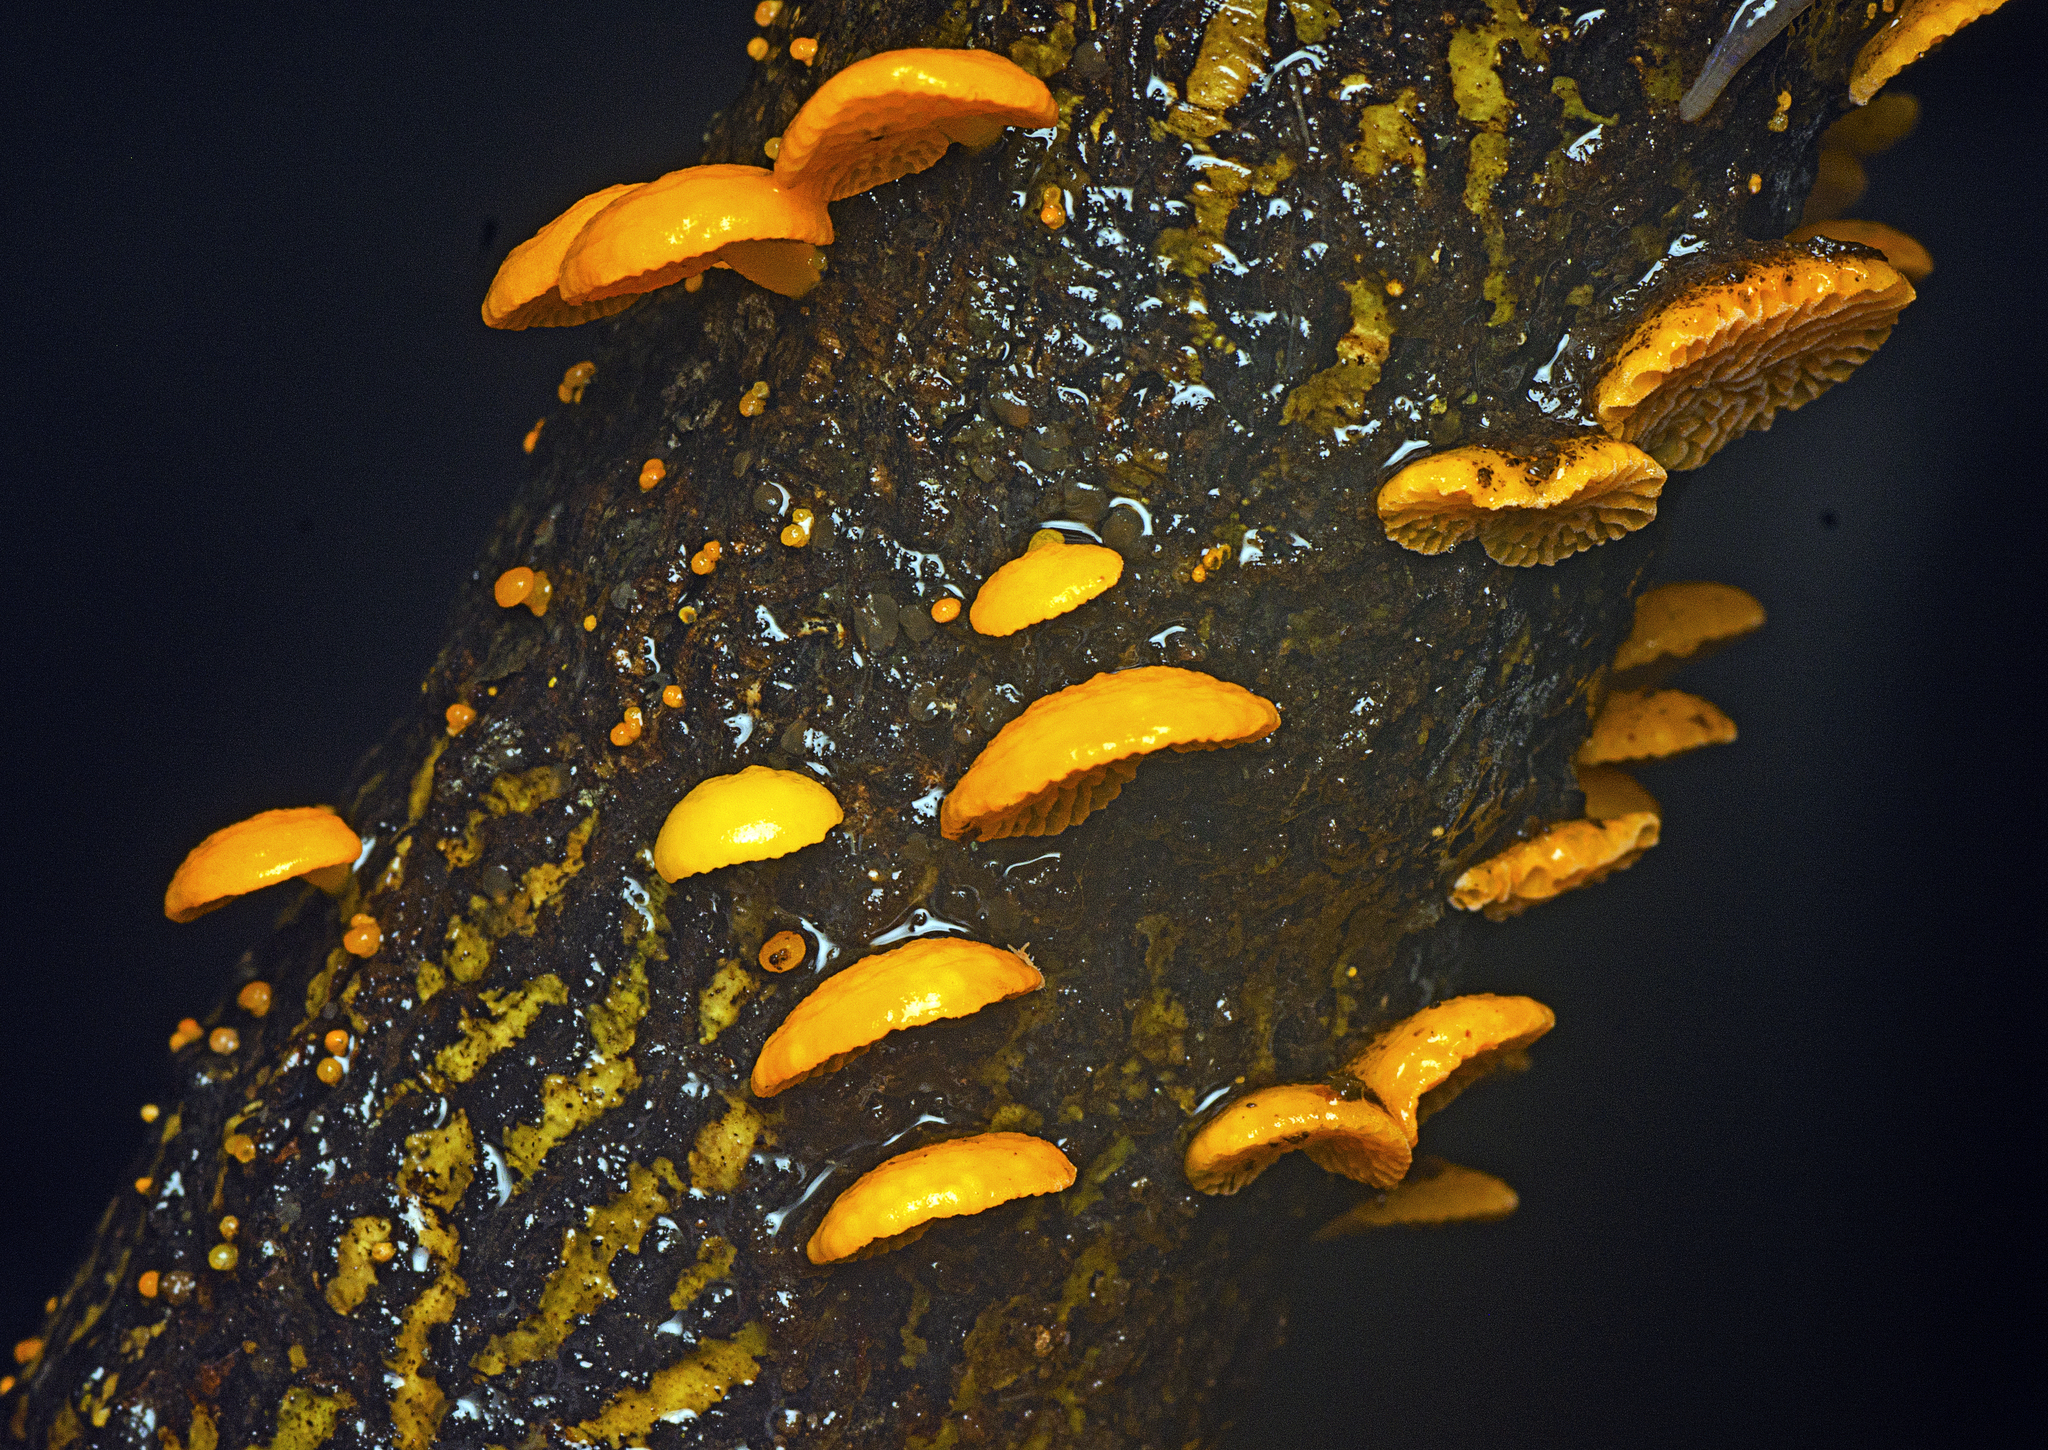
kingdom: Fungi
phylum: Basidiomycota
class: Agaricomycetes
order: Agaricales
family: Mycenaceae
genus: Favolaschia
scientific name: Favolaschia claudopus
